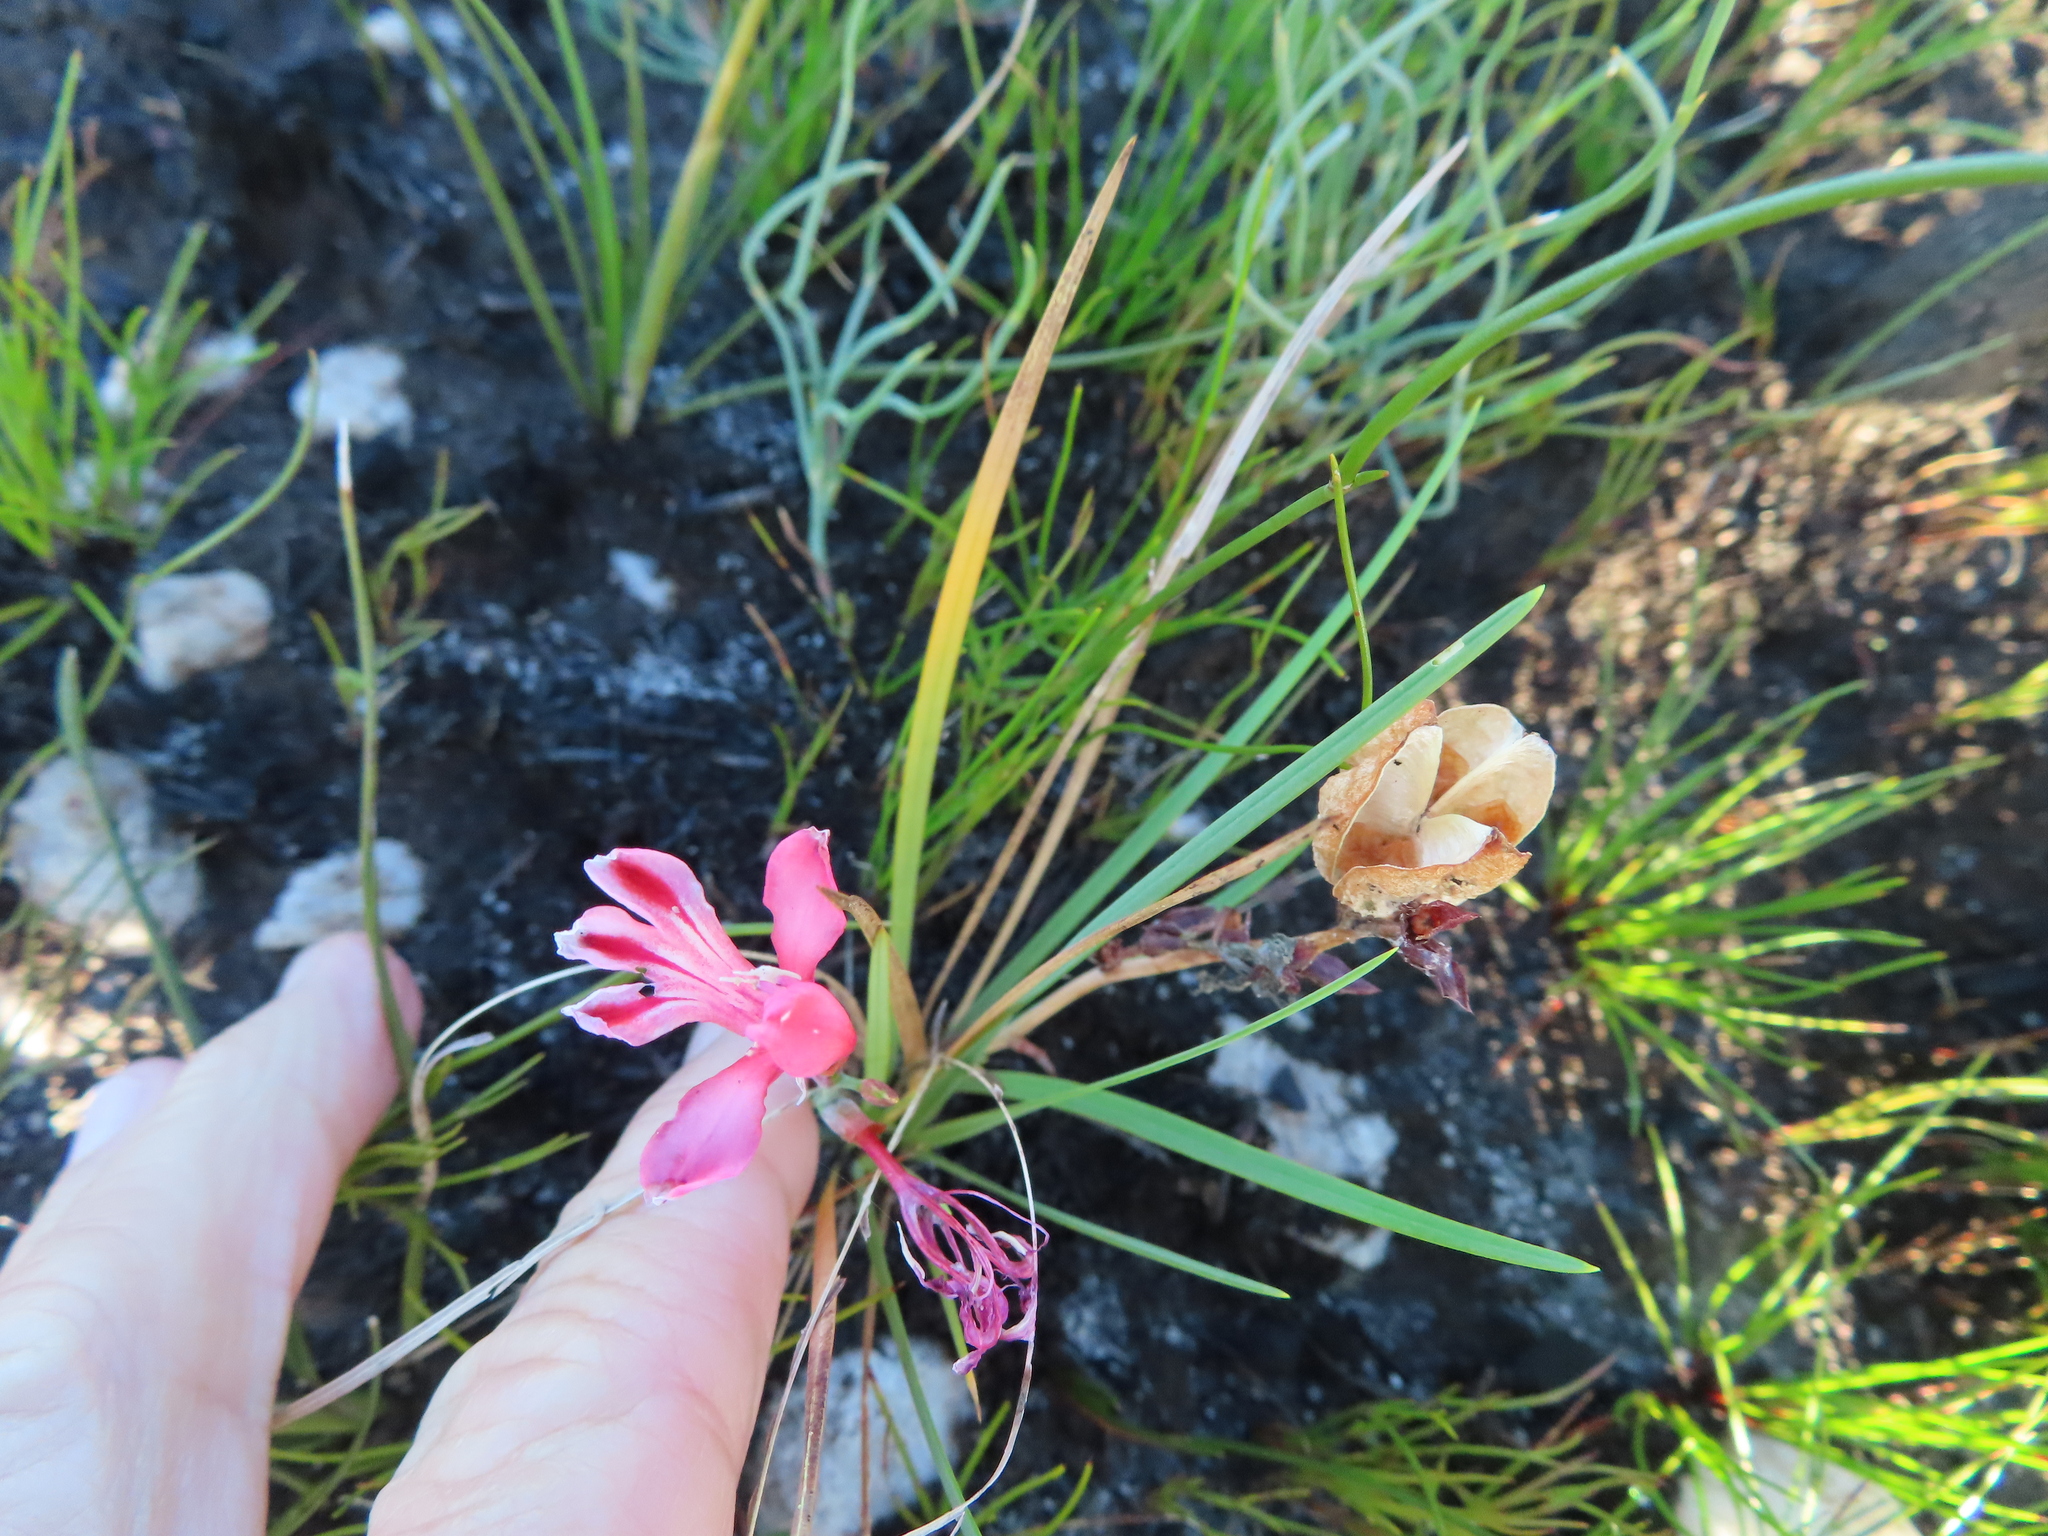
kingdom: Plantae
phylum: Tracheophyta
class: Liliopsida
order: Asparagales
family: Iridaceae
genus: Tritoniopsis
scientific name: Tritoniopsis lata
